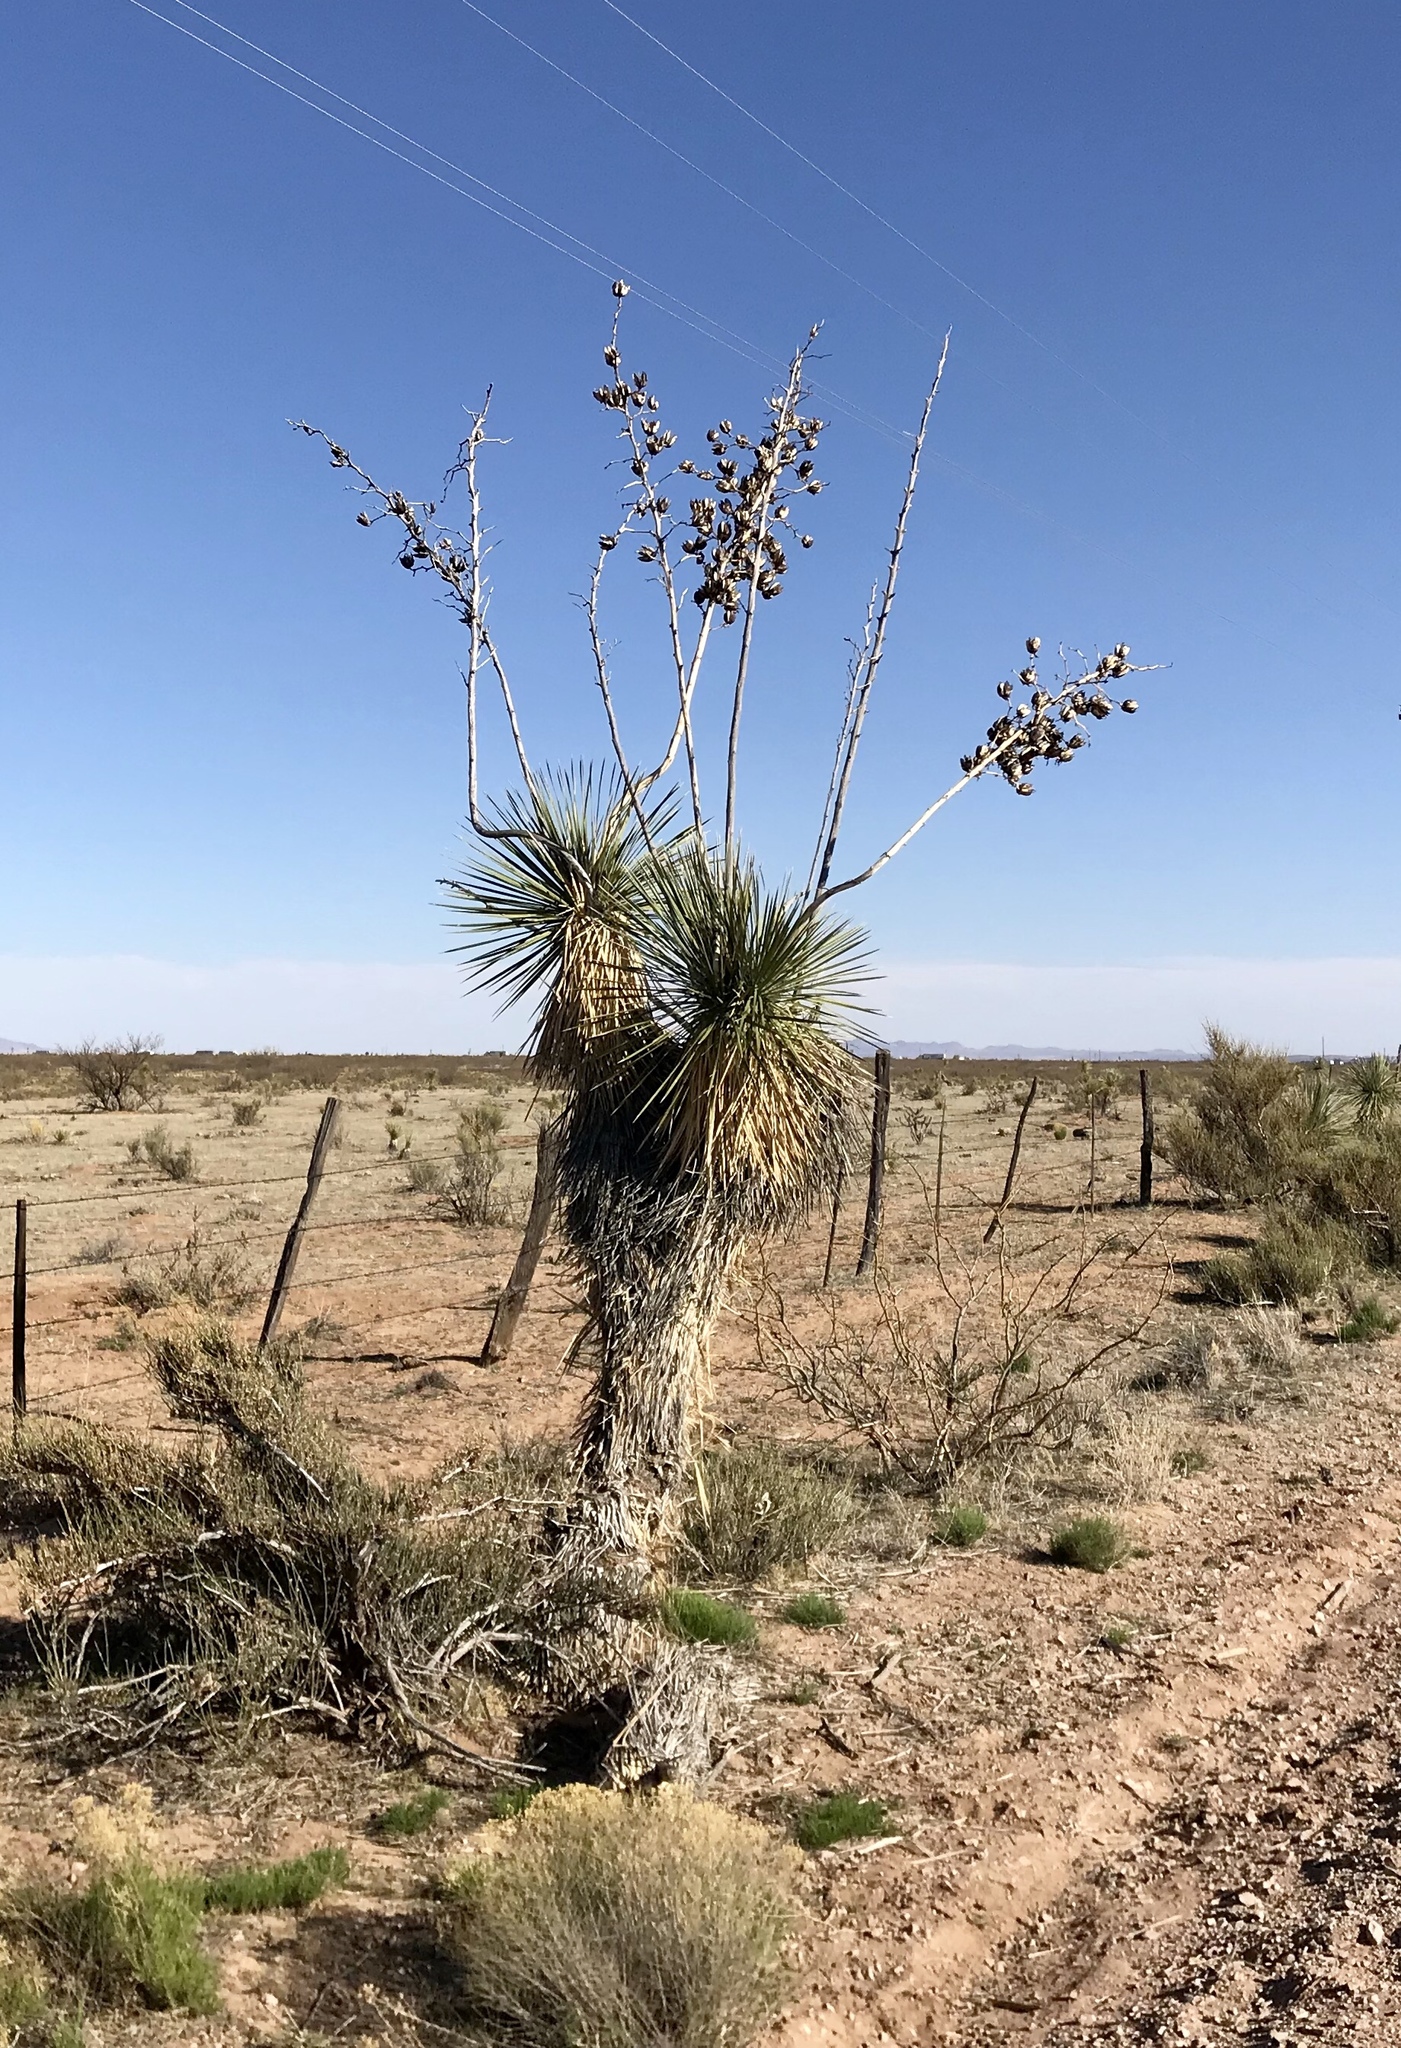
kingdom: Plantae
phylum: Tracheophyta
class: Liliopsida
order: Asparagales
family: Asparagaceae
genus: Yucca
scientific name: Yucca elata
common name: Palmella
